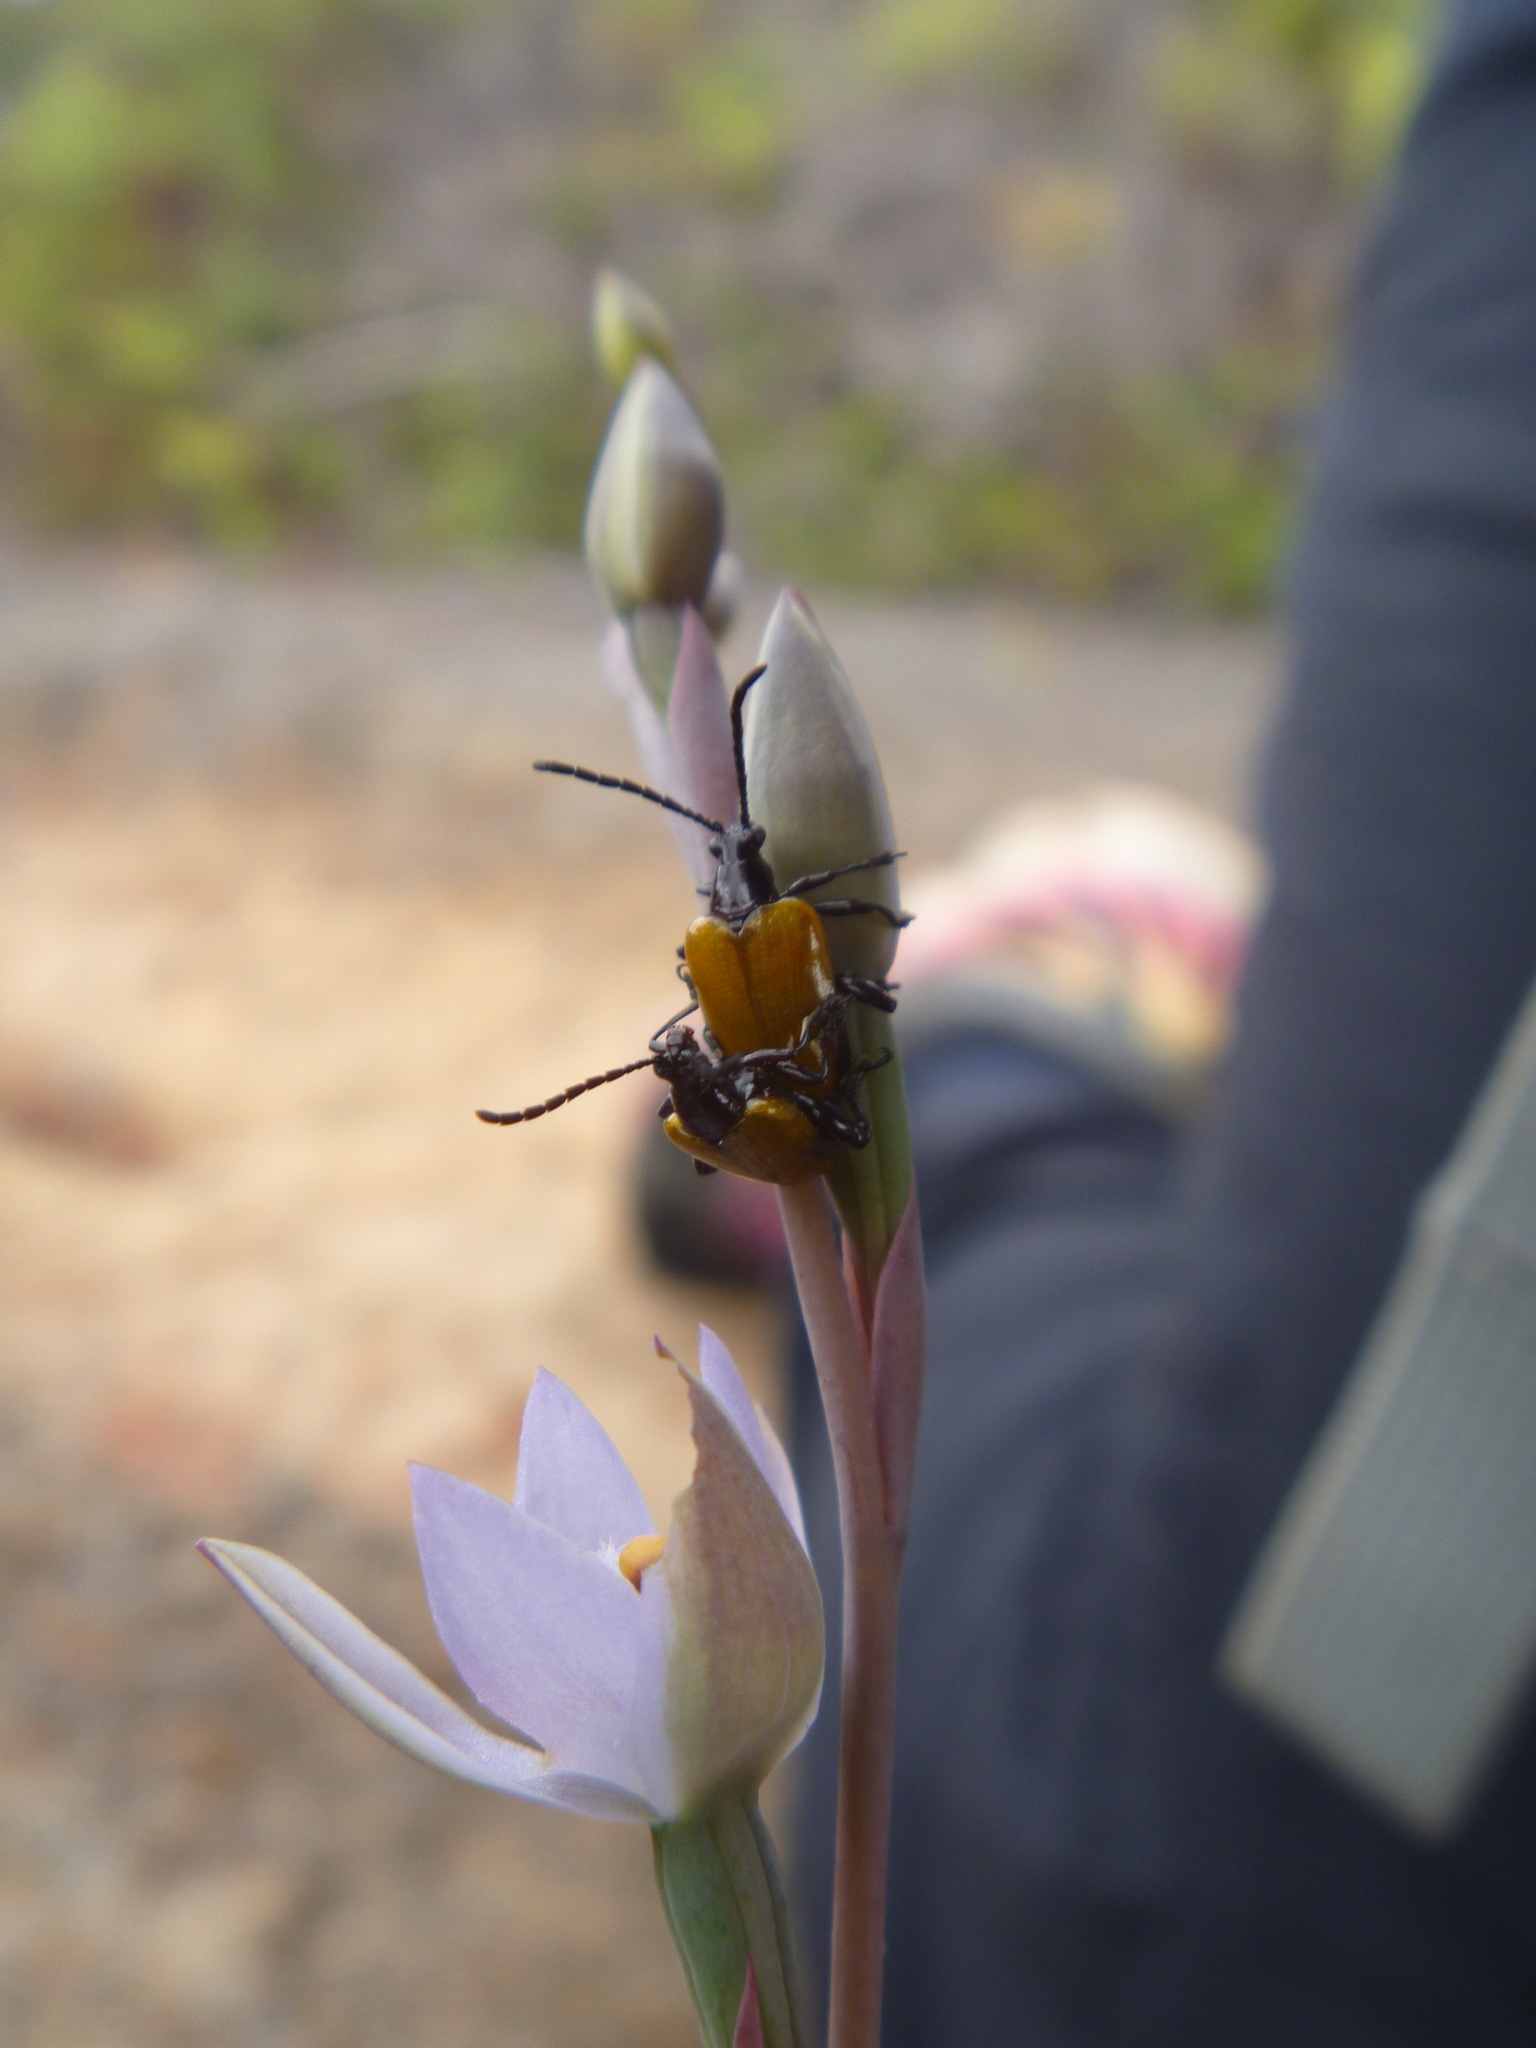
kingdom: Animalia
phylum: Arthropoda
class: Insecta
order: Coleoptera
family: Chrysomelidae
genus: Stethopachys
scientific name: Stethopachys javeti
